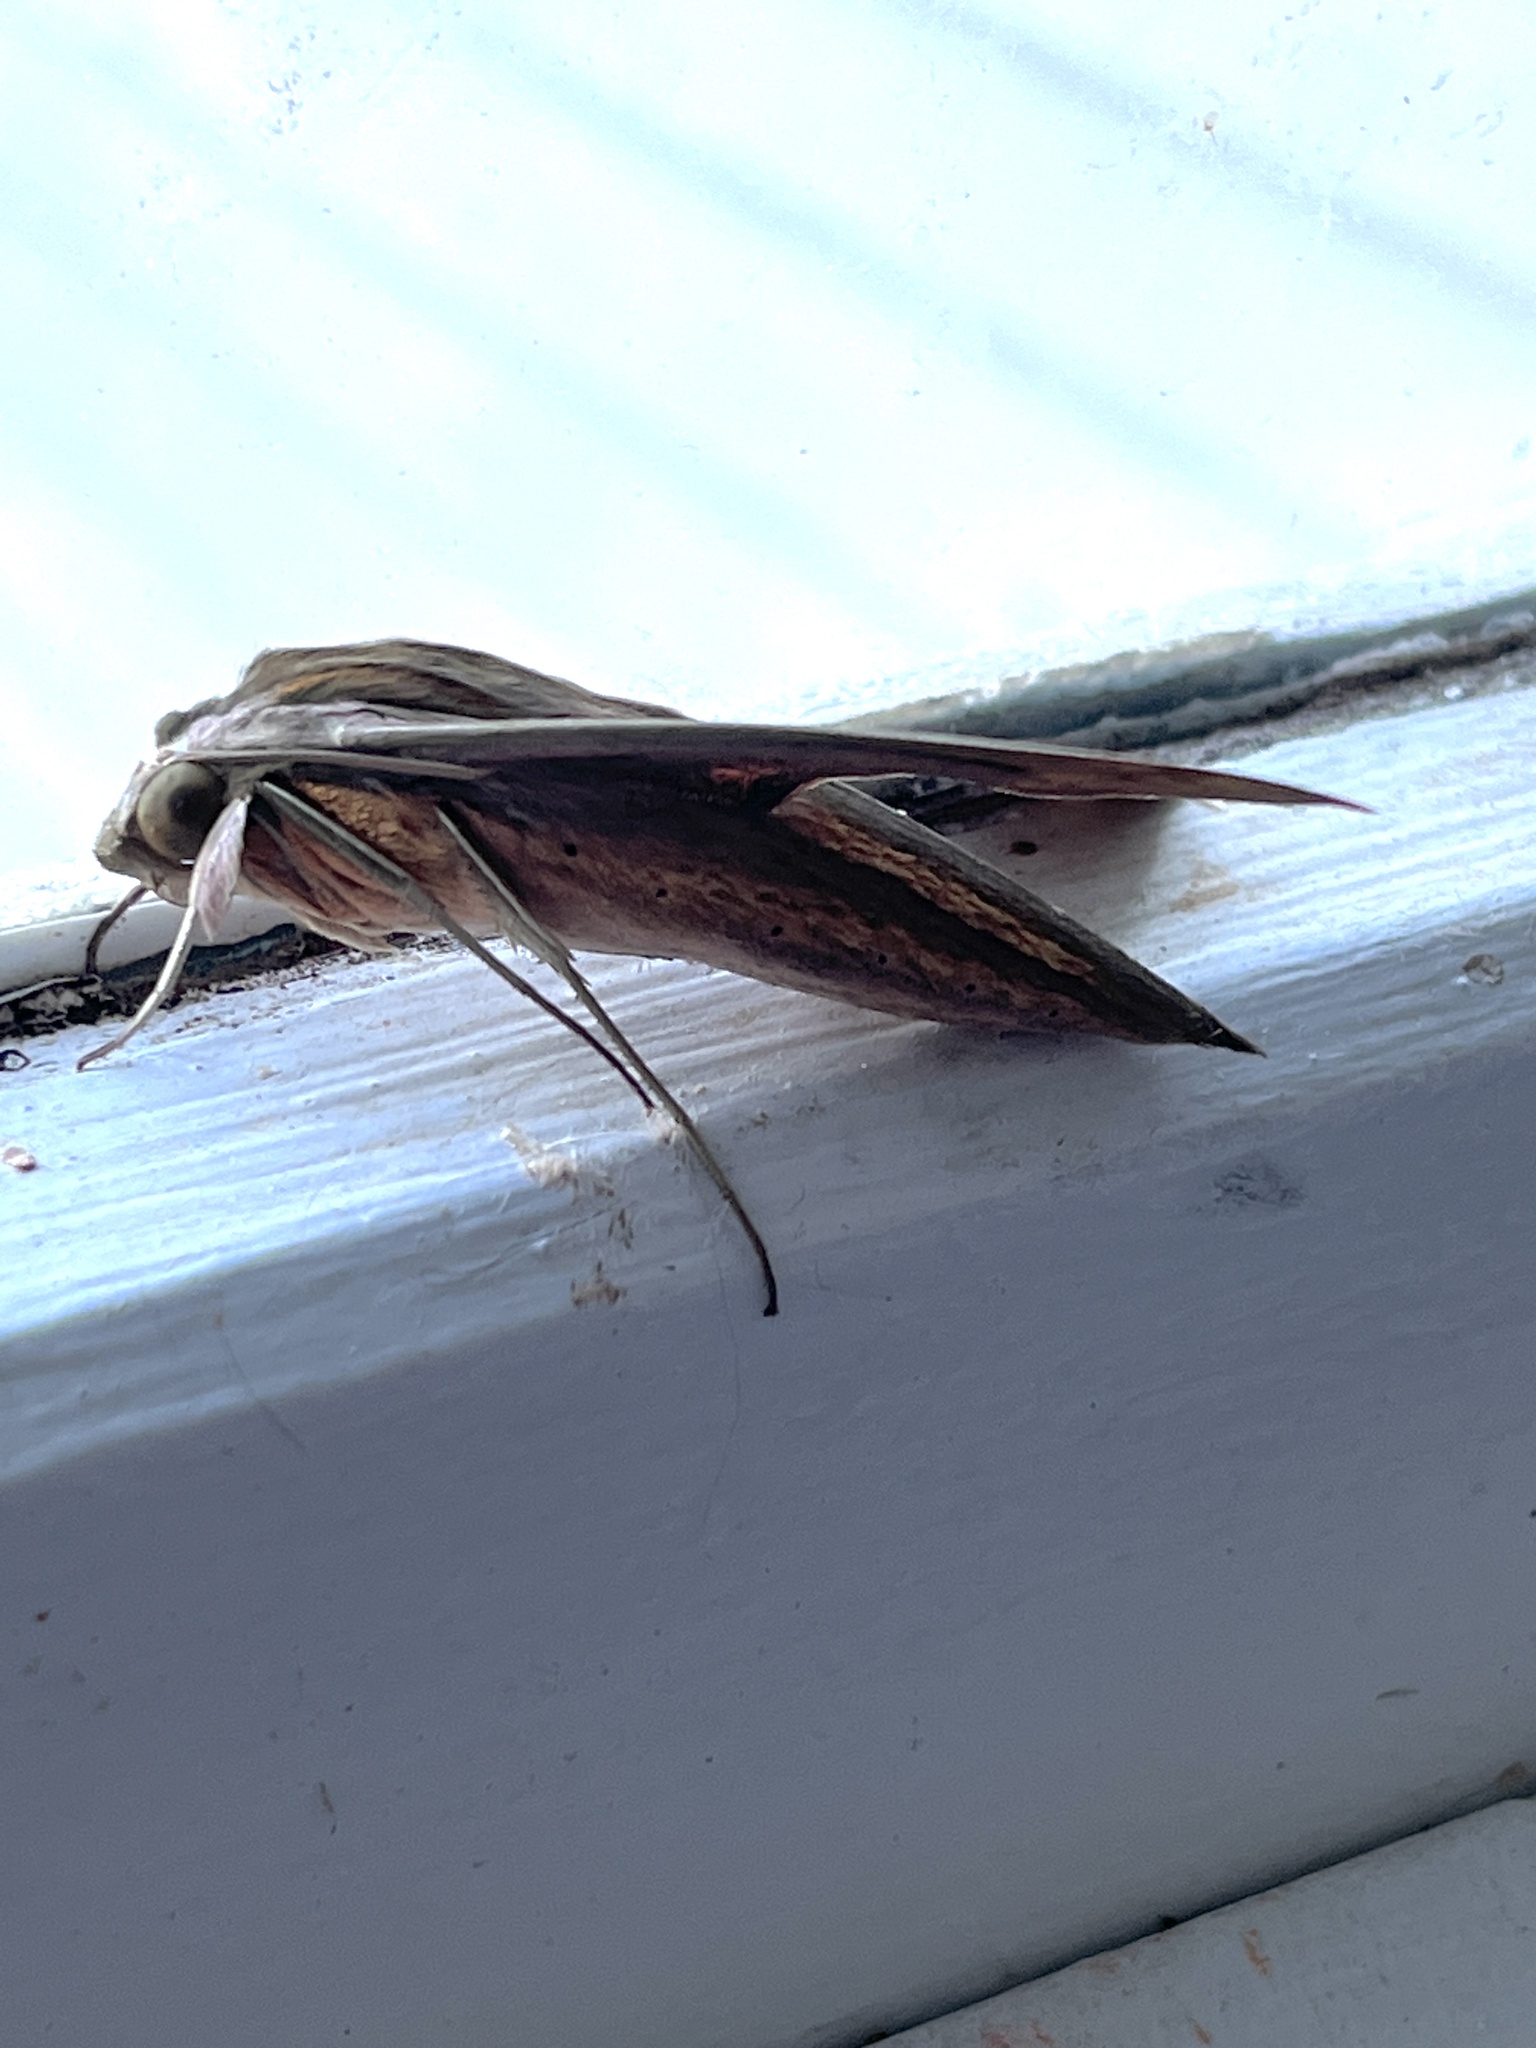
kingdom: Animalia
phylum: Arthropoda
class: Insecta
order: Lepidoptera
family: Sphingidae
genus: Hippotion
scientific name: Hippotion eson
